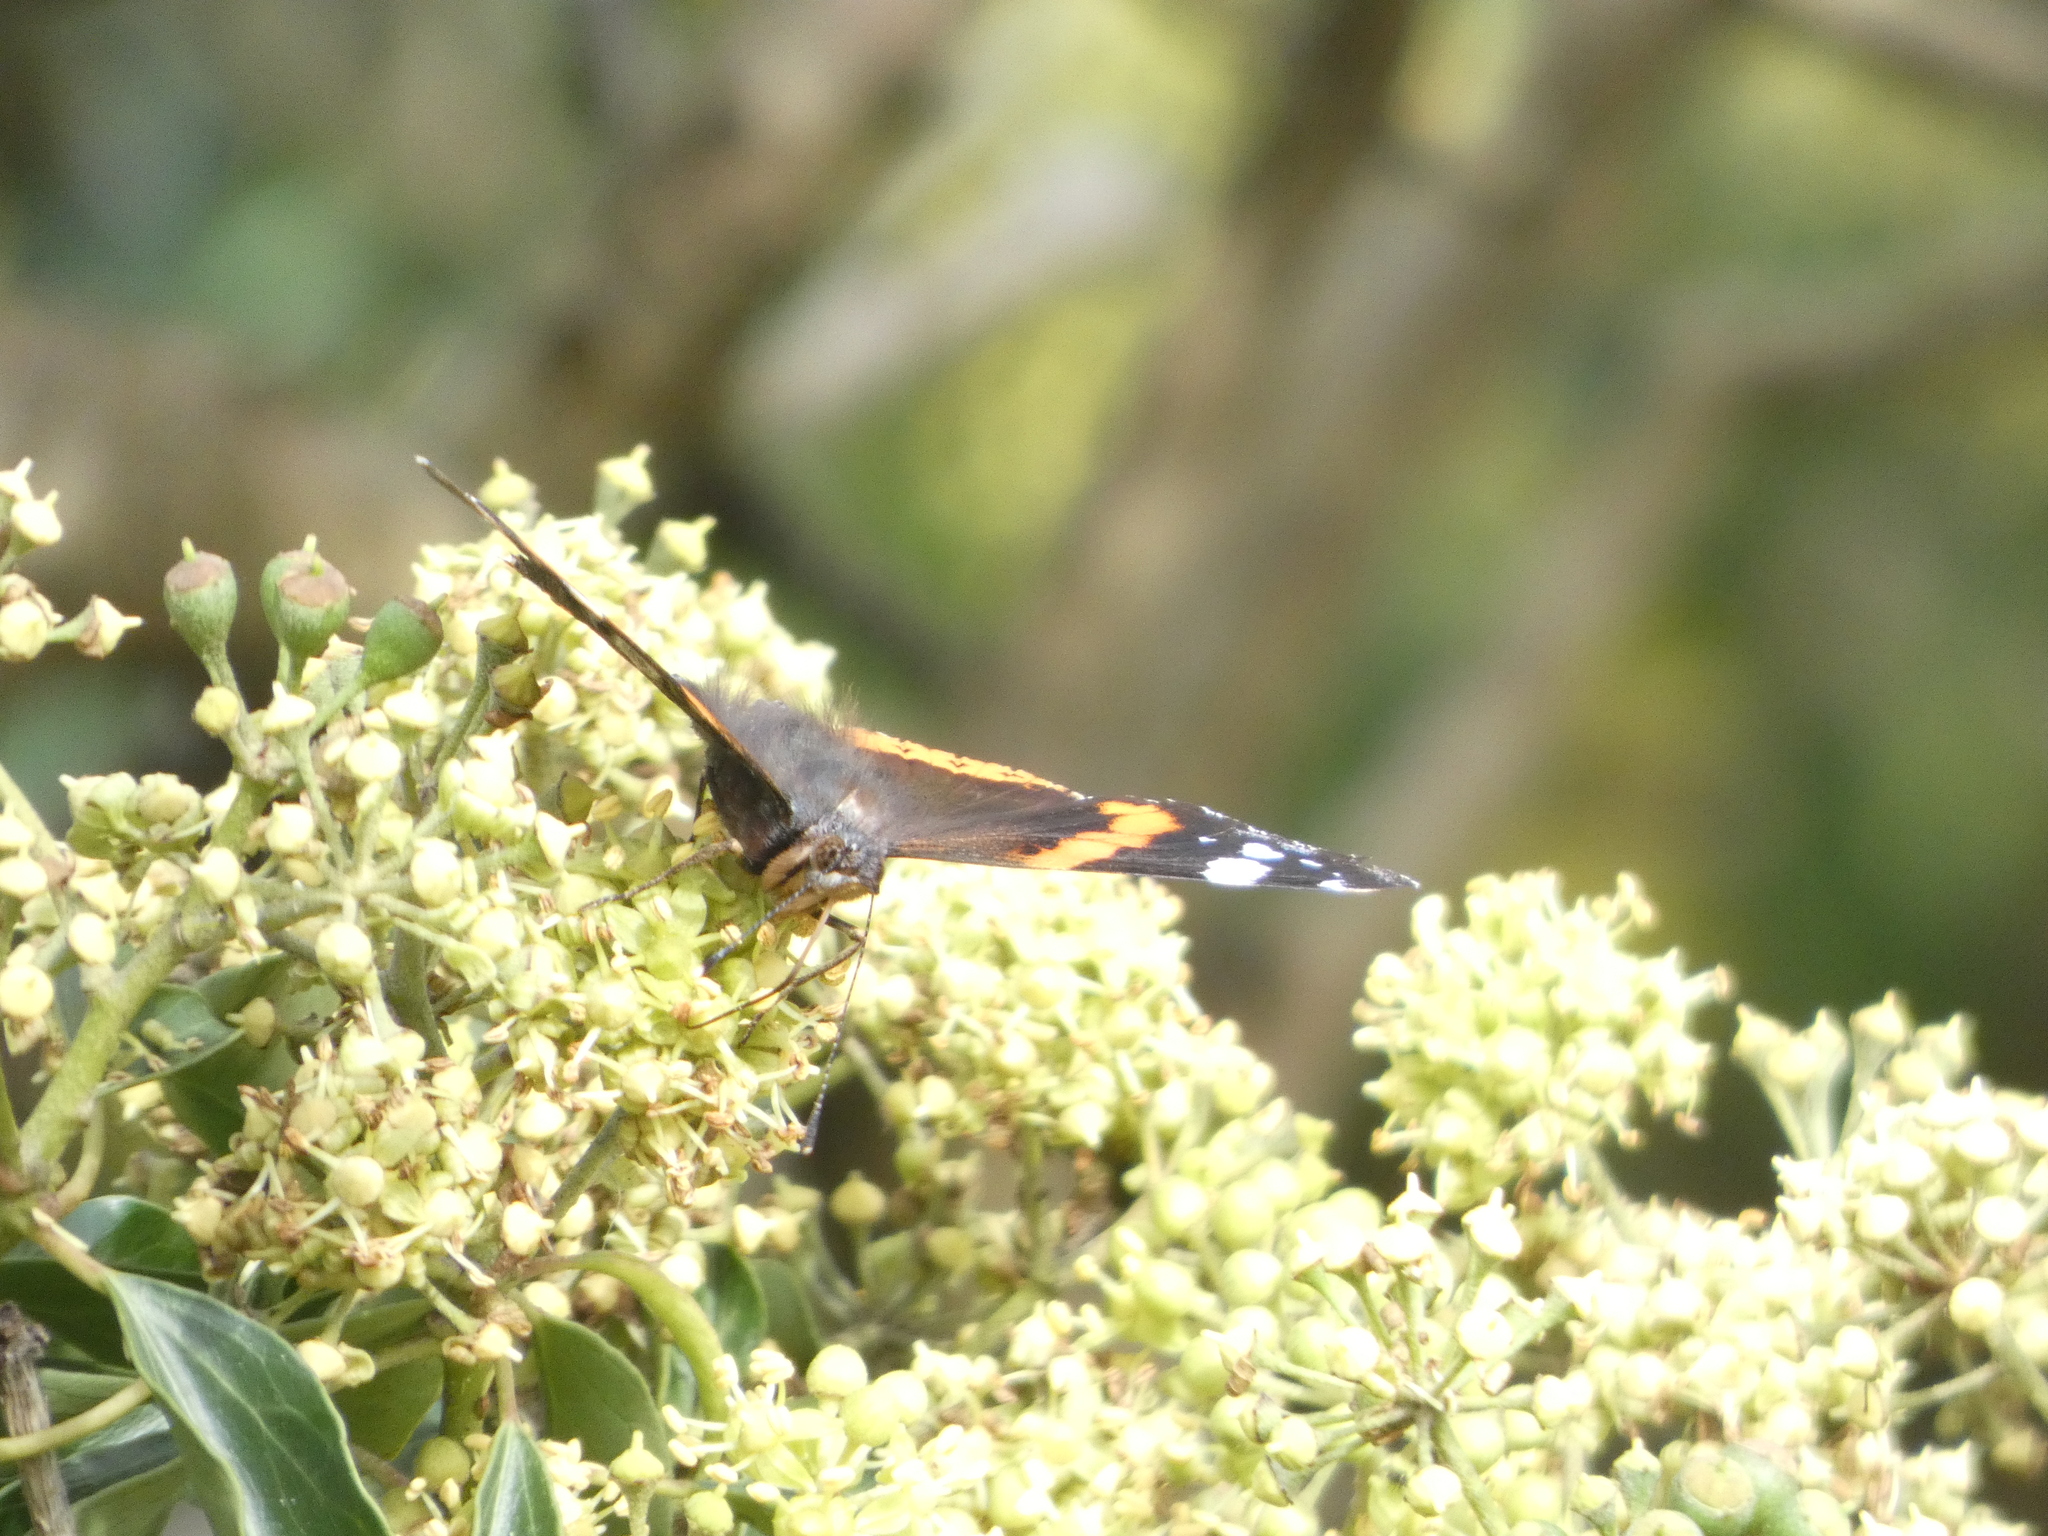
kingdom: Animalia
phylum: Arthropoda
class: Insecta
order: Lepidoptera
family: Nymphalidae
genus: Vanessa
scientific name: Vanessa atalanta
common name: Red admiral
